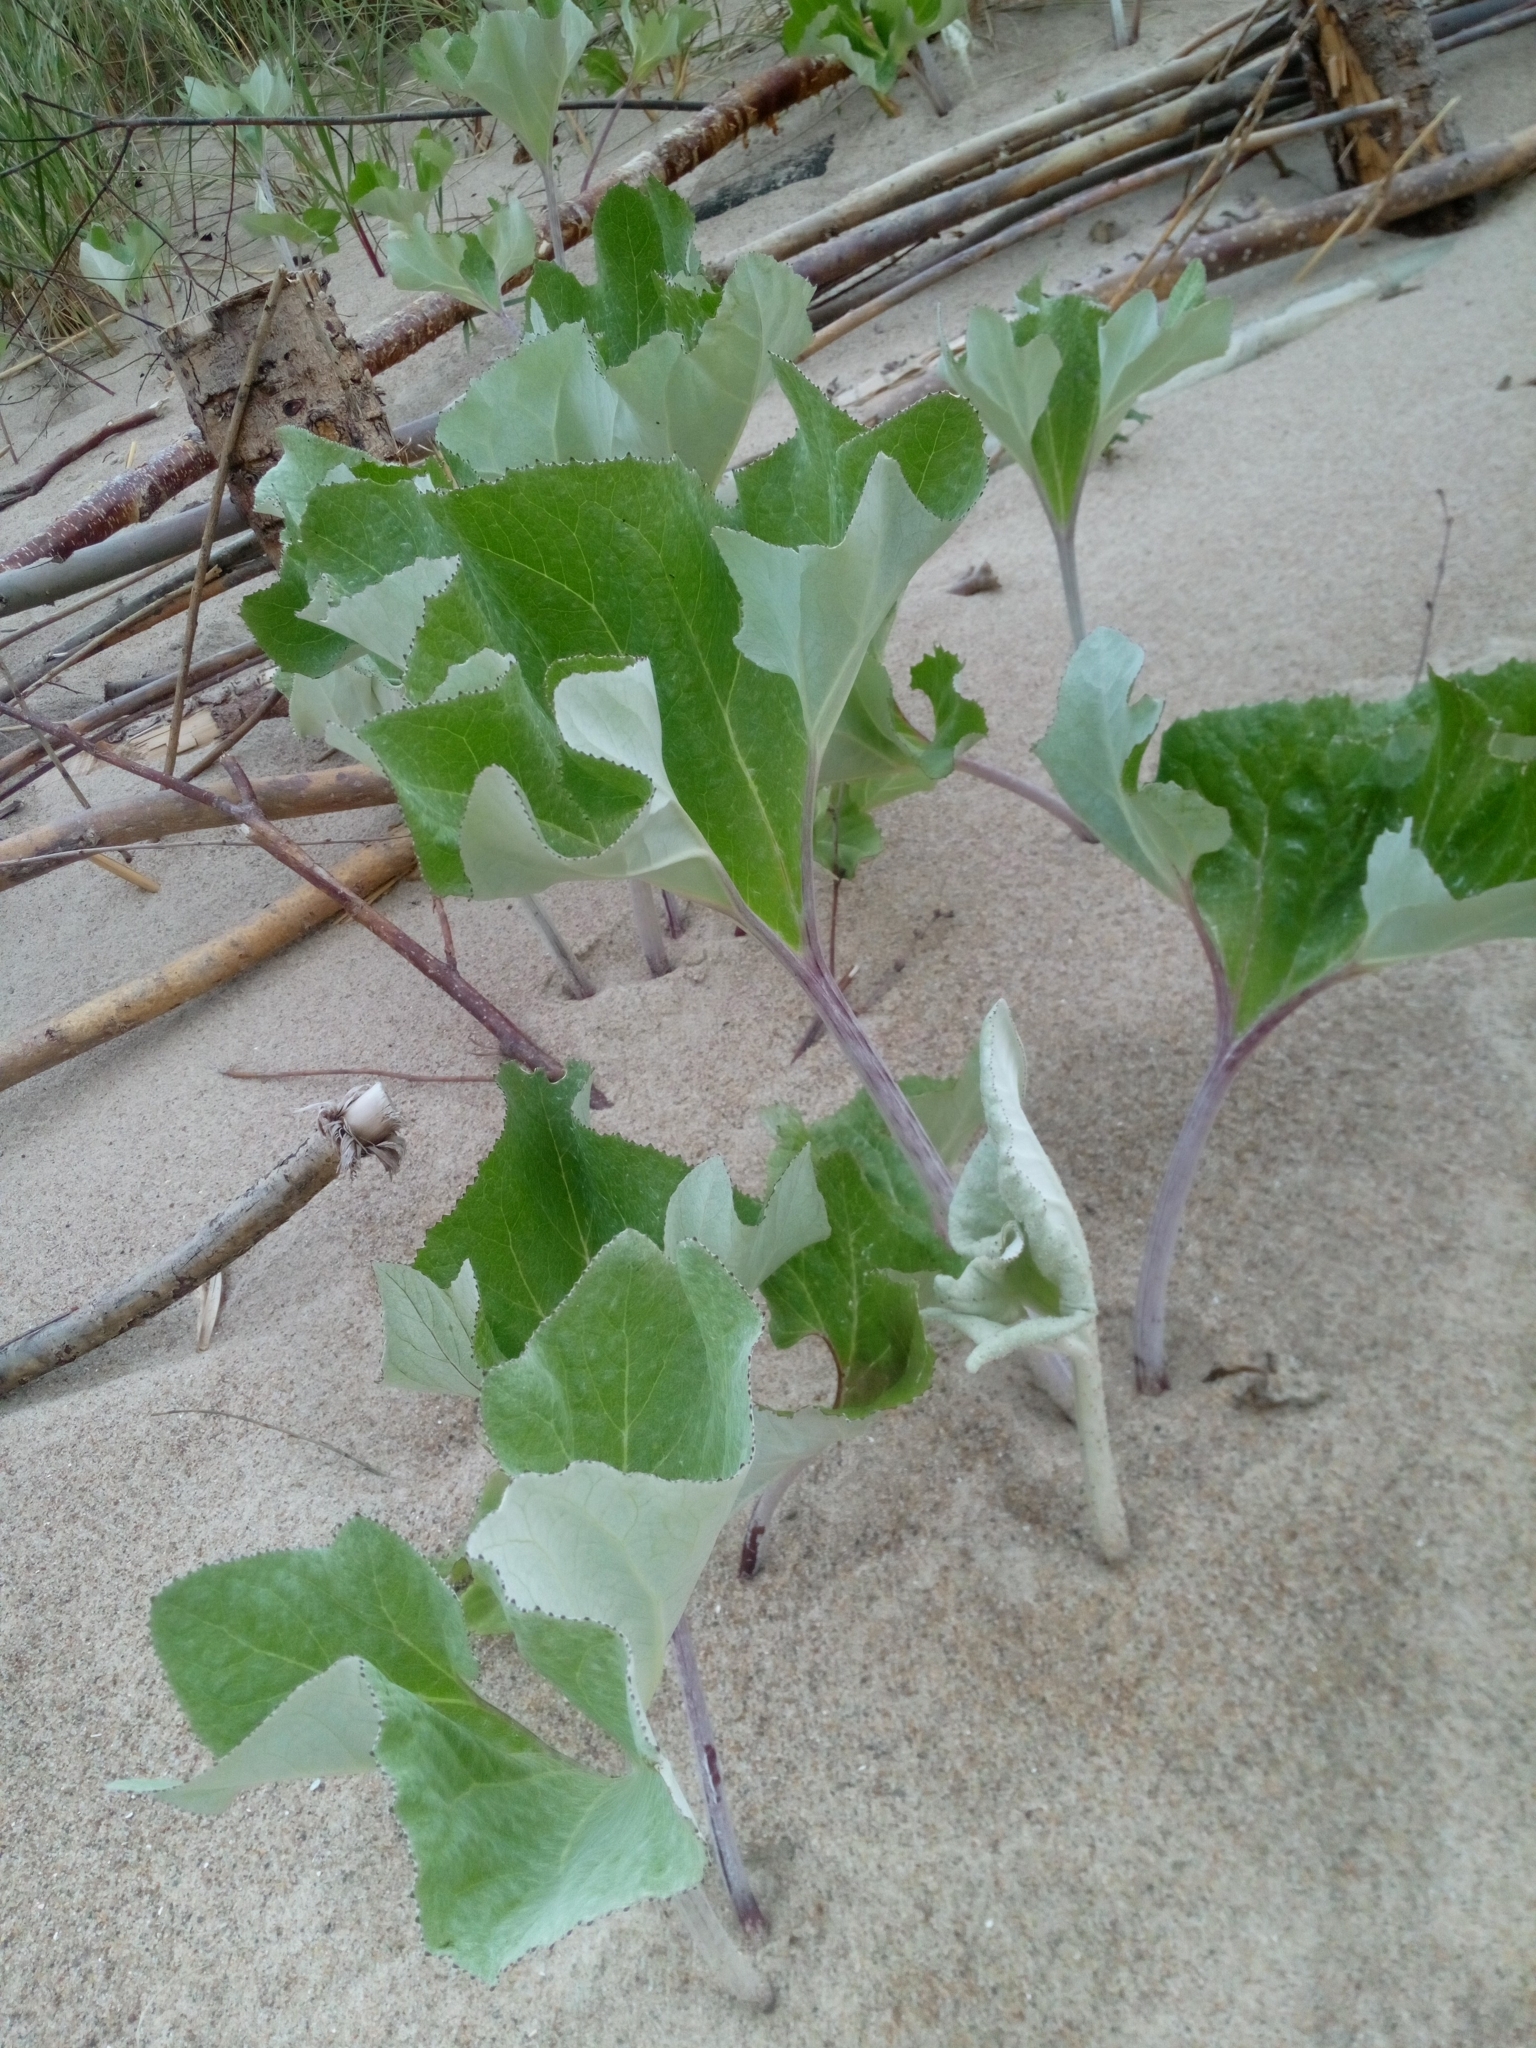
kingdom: Plantae
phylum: Tracheophyta
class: Magnoliopsida
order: Asterales
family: Asteraceae
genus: Petasites
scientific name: Petasites spurius
